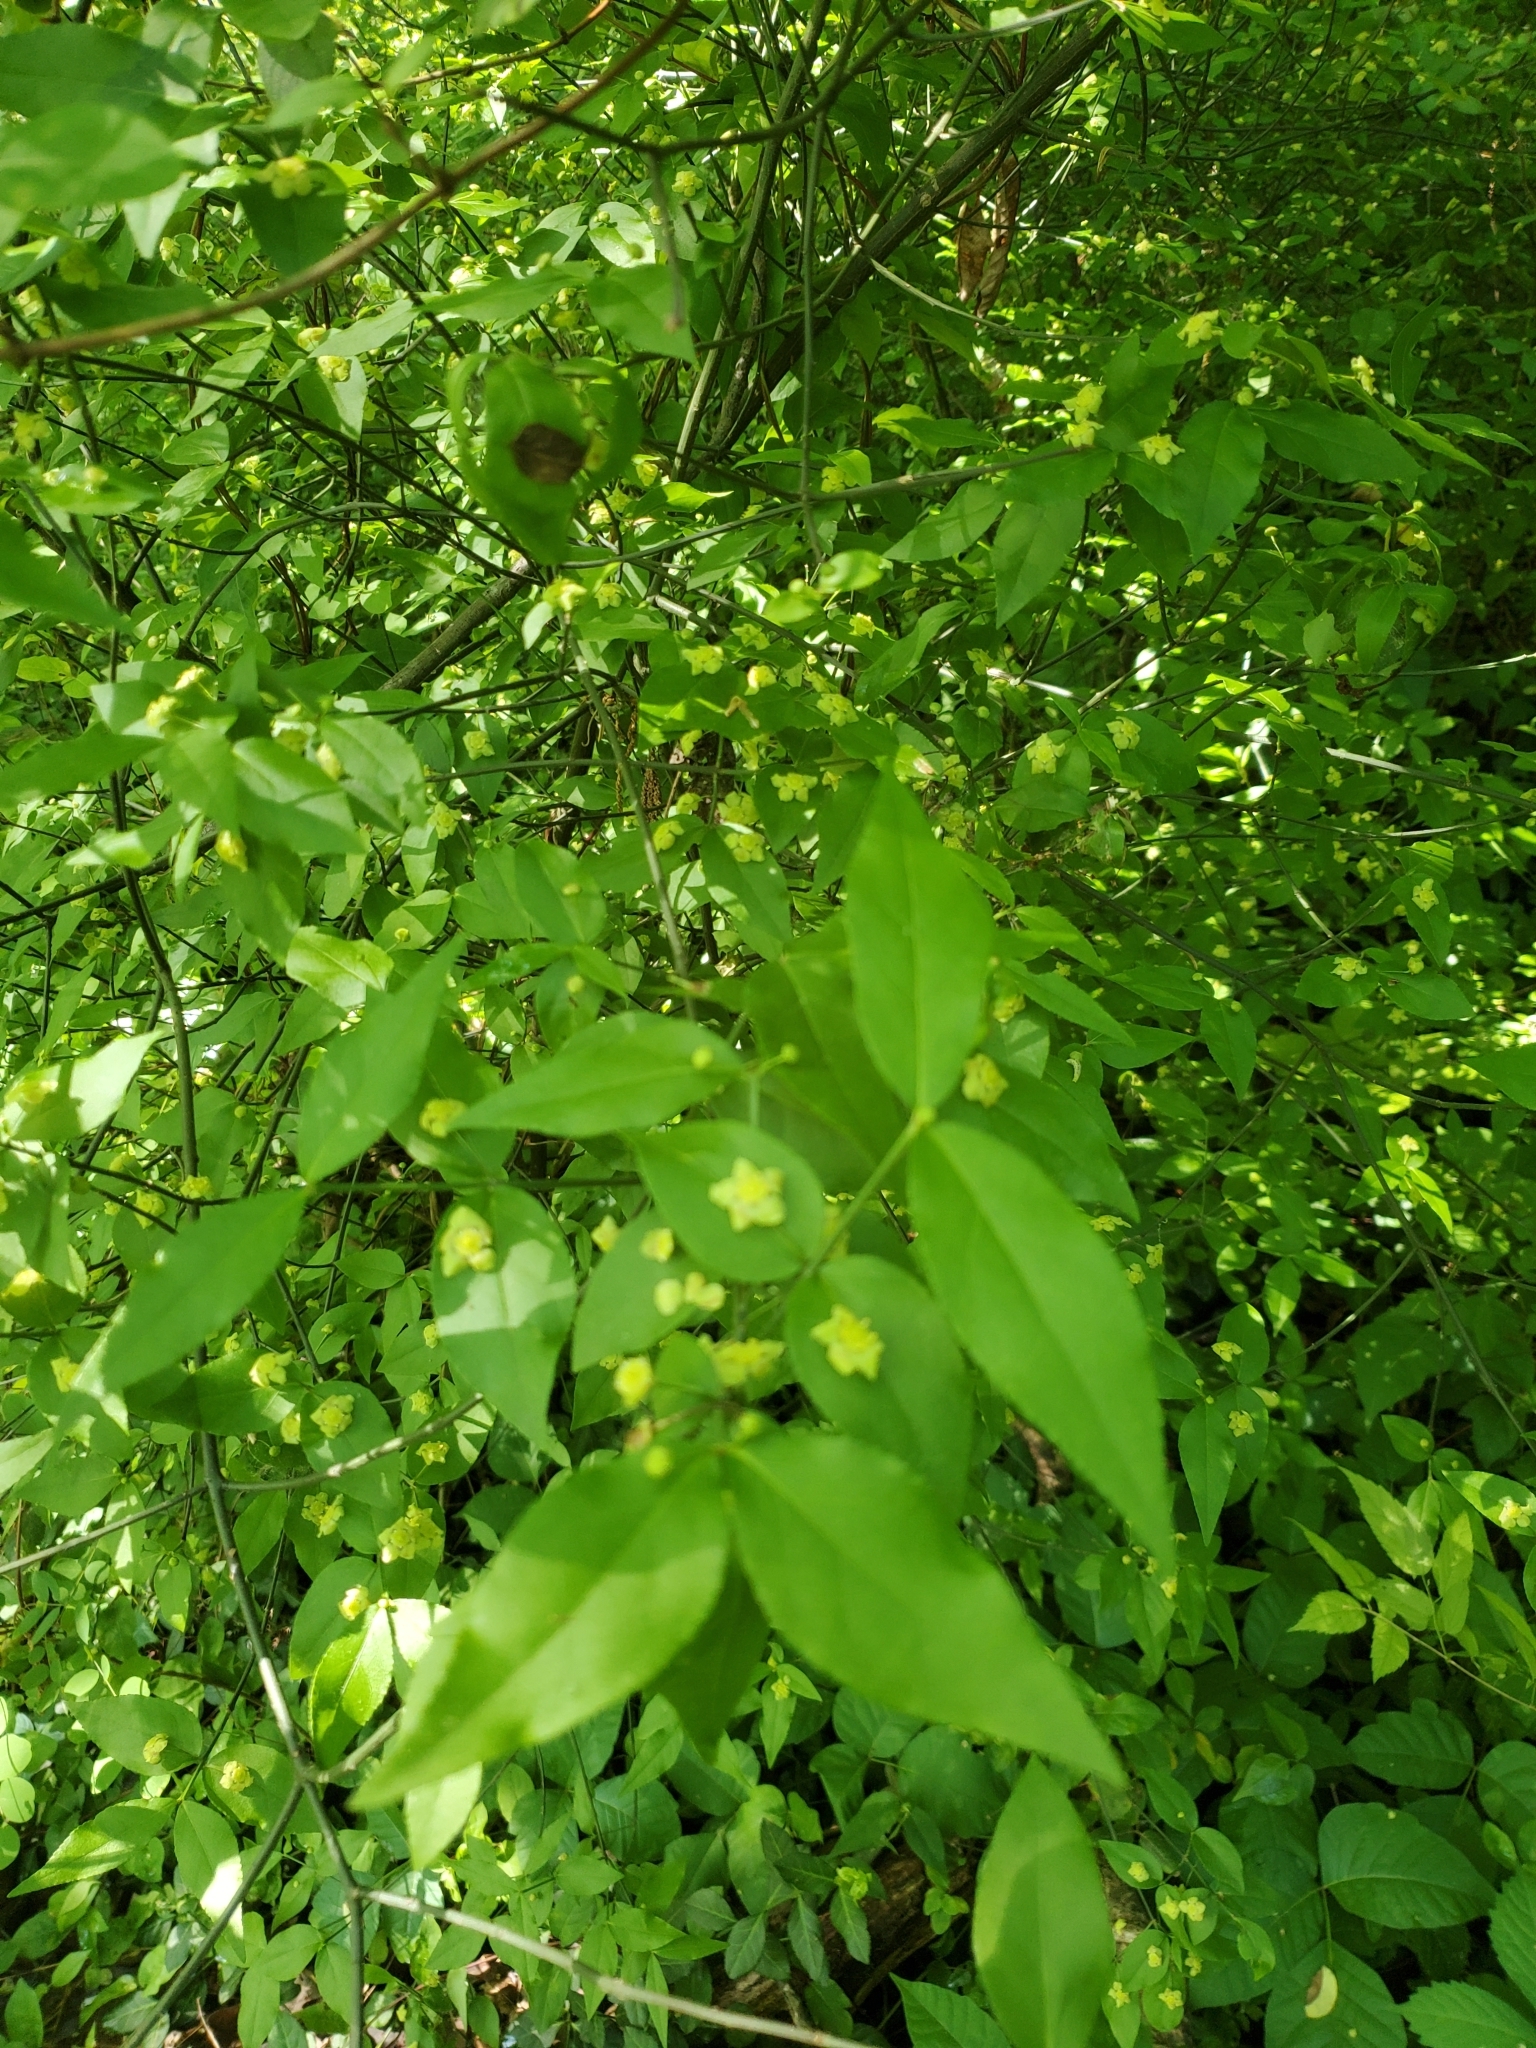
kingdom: Plantae
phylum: Tracheophyta
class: Magnoliopsida
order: Celastrales
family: Celastraceae
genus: Euonymus
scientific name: Euonymus americanus
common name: Bursting-heart
